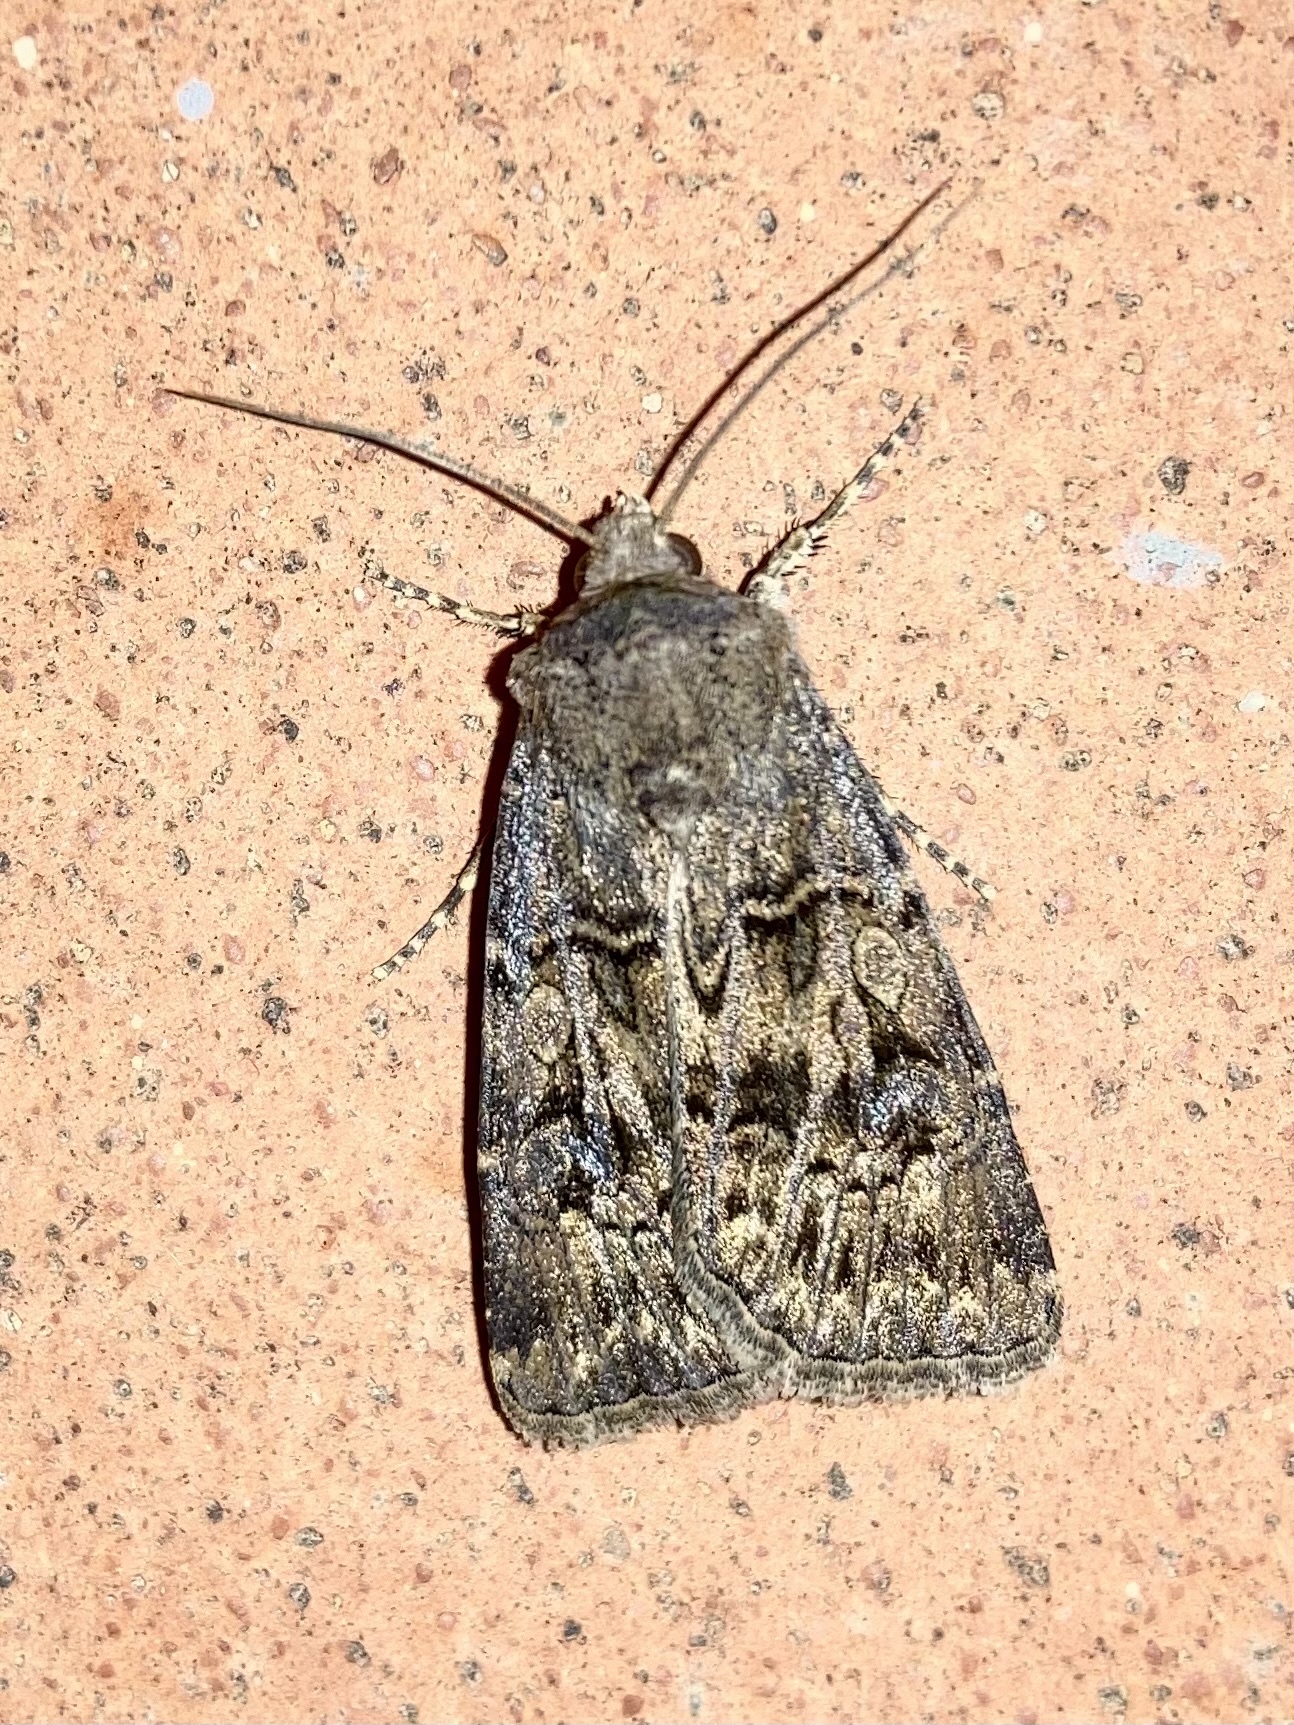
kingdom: Animalia
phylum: Arthropoda
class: Insecta
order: Lepidoptera
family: Noctuidae
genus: Agrotis
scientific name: Agrotis bigramma
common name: Great dart
